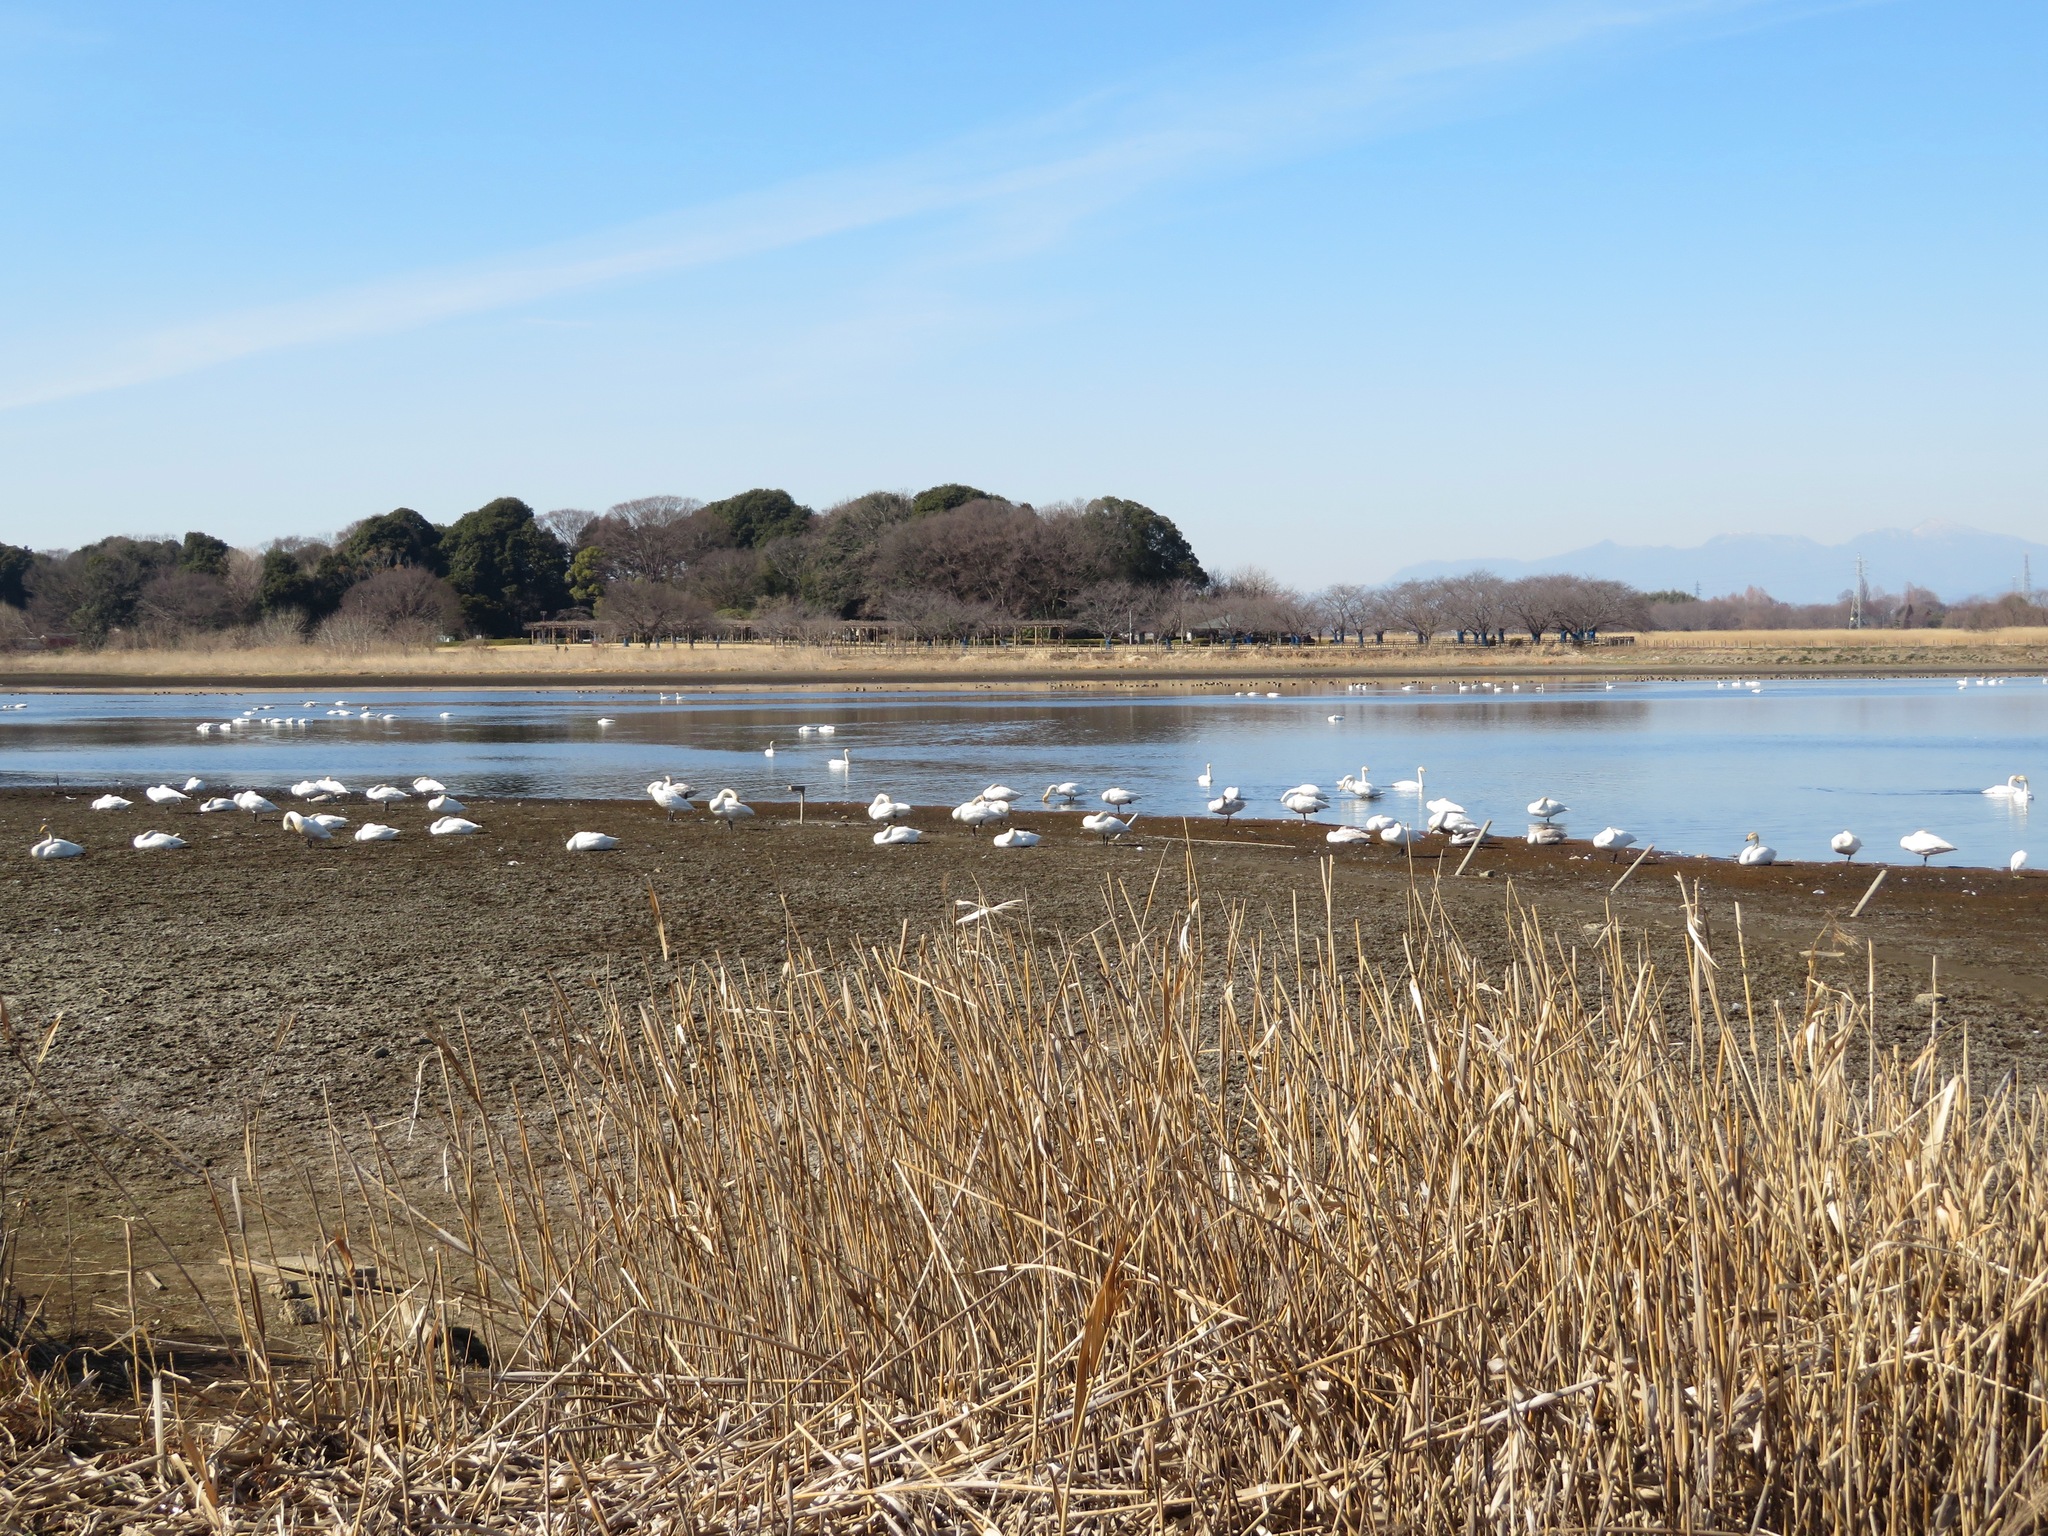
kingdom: Animalia
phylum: Chordata
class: Aves
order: Anseriformes
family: Anatidae
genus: Cygnus
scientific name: Cygnus cygnus
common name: Whooper swan
